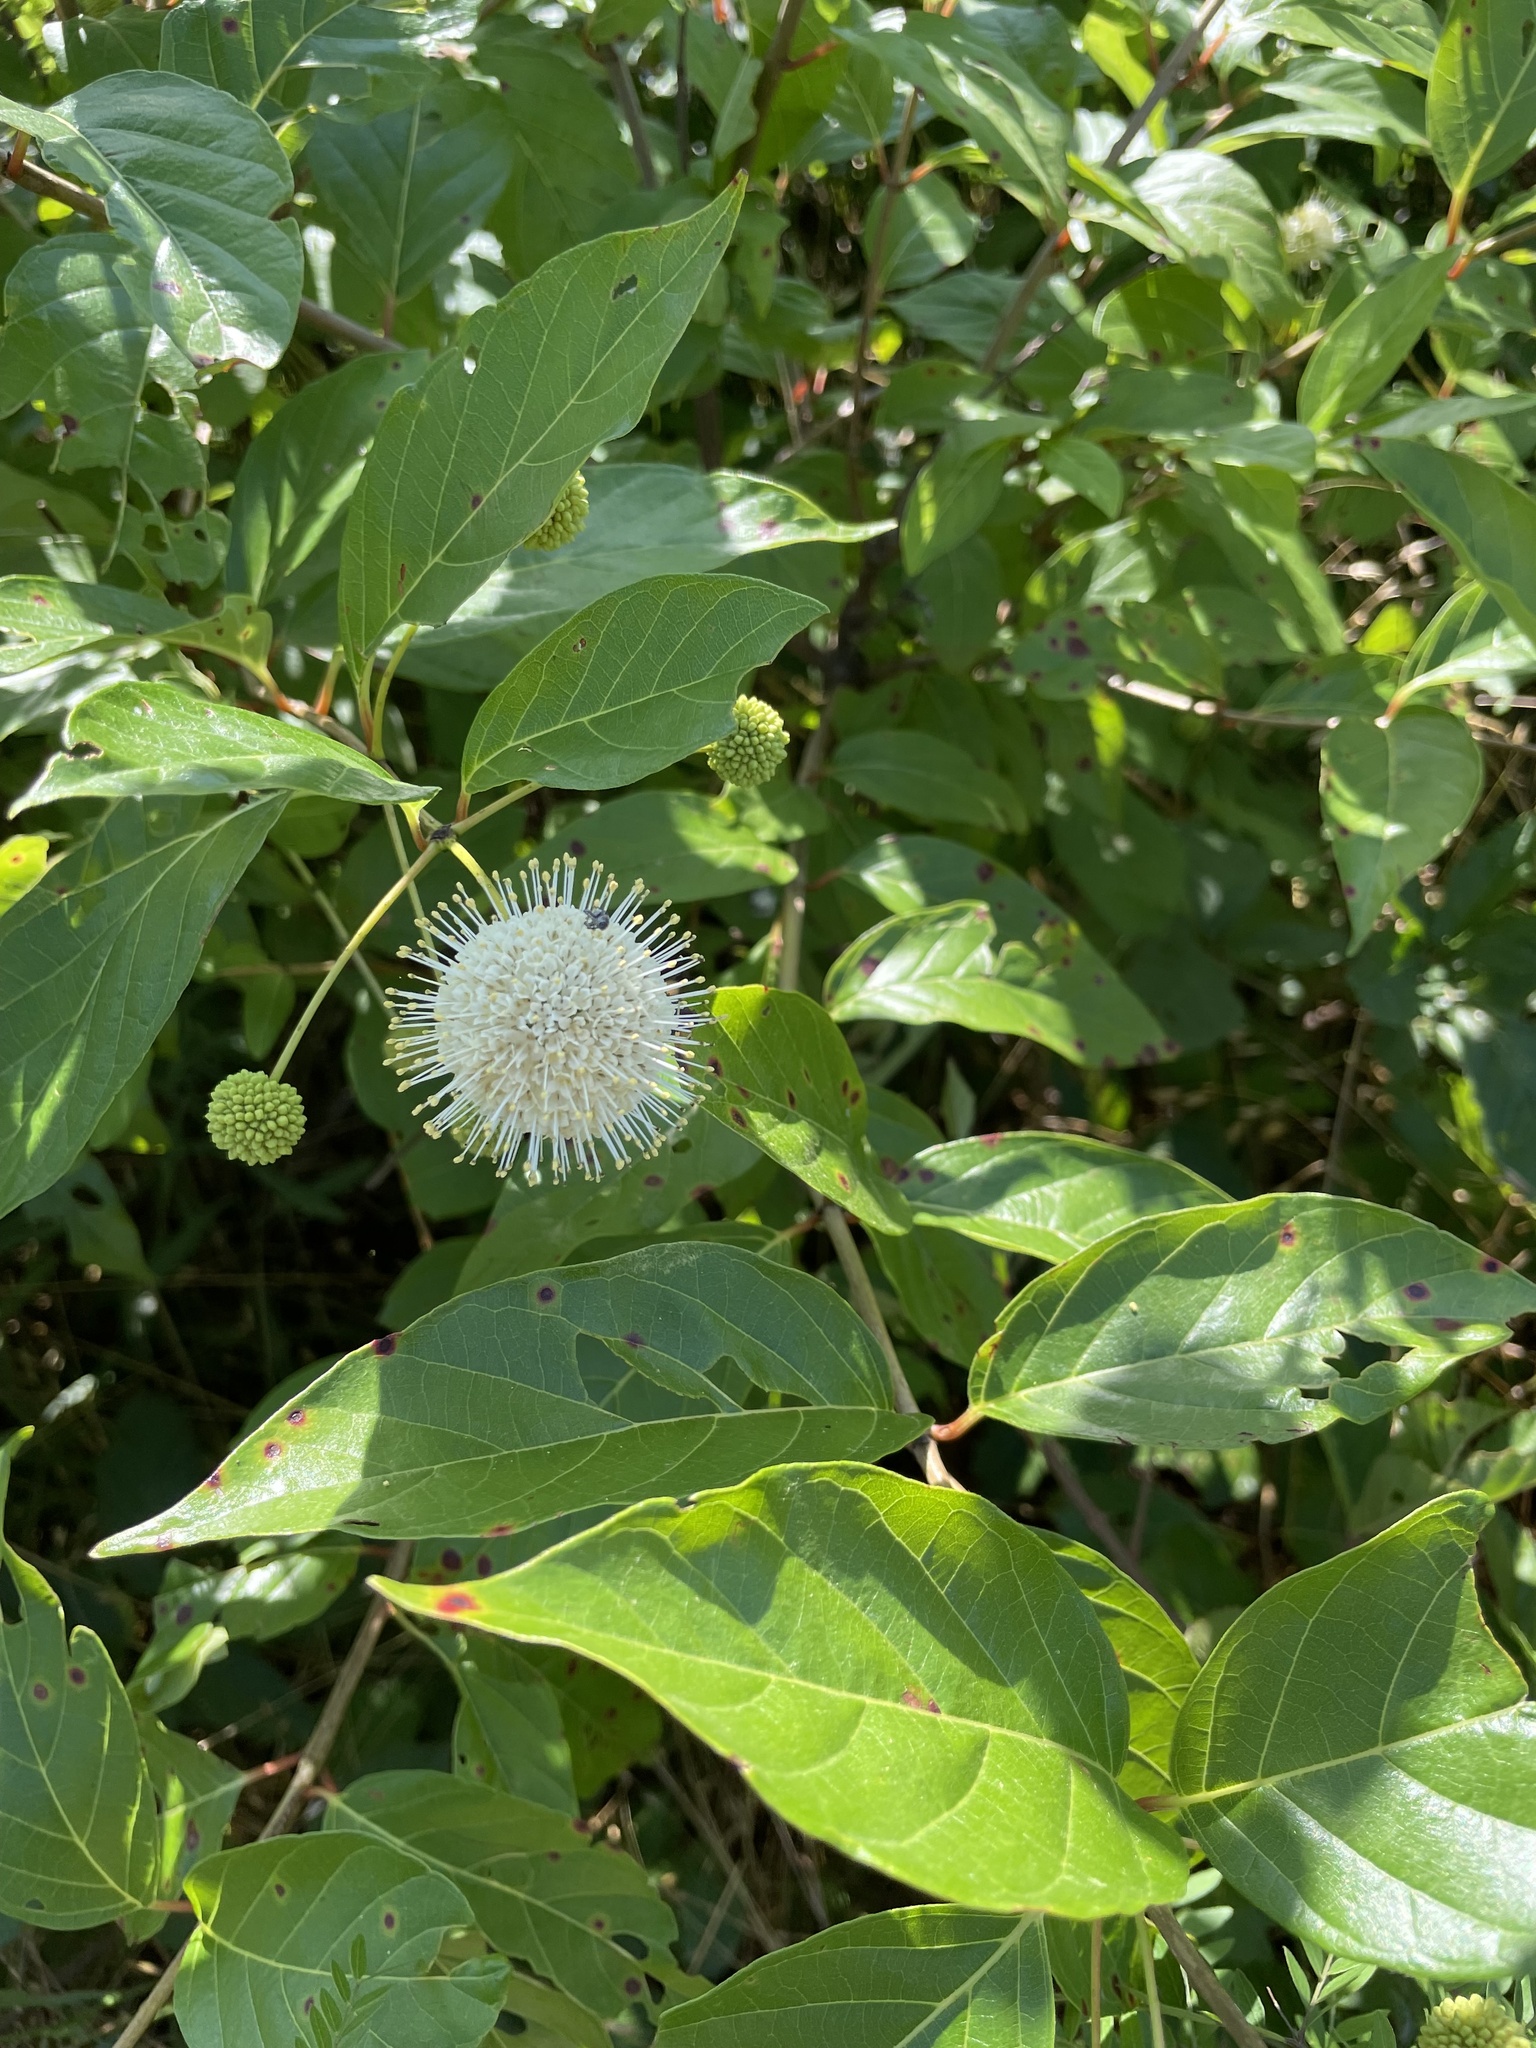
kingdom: Plantae
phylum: Tracheophyta
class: Magnoliopsida
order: Gentianales
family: Rubiaceae
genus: Cephalanthus
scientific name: Cephalanthus occidentalis
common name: Button-willow
